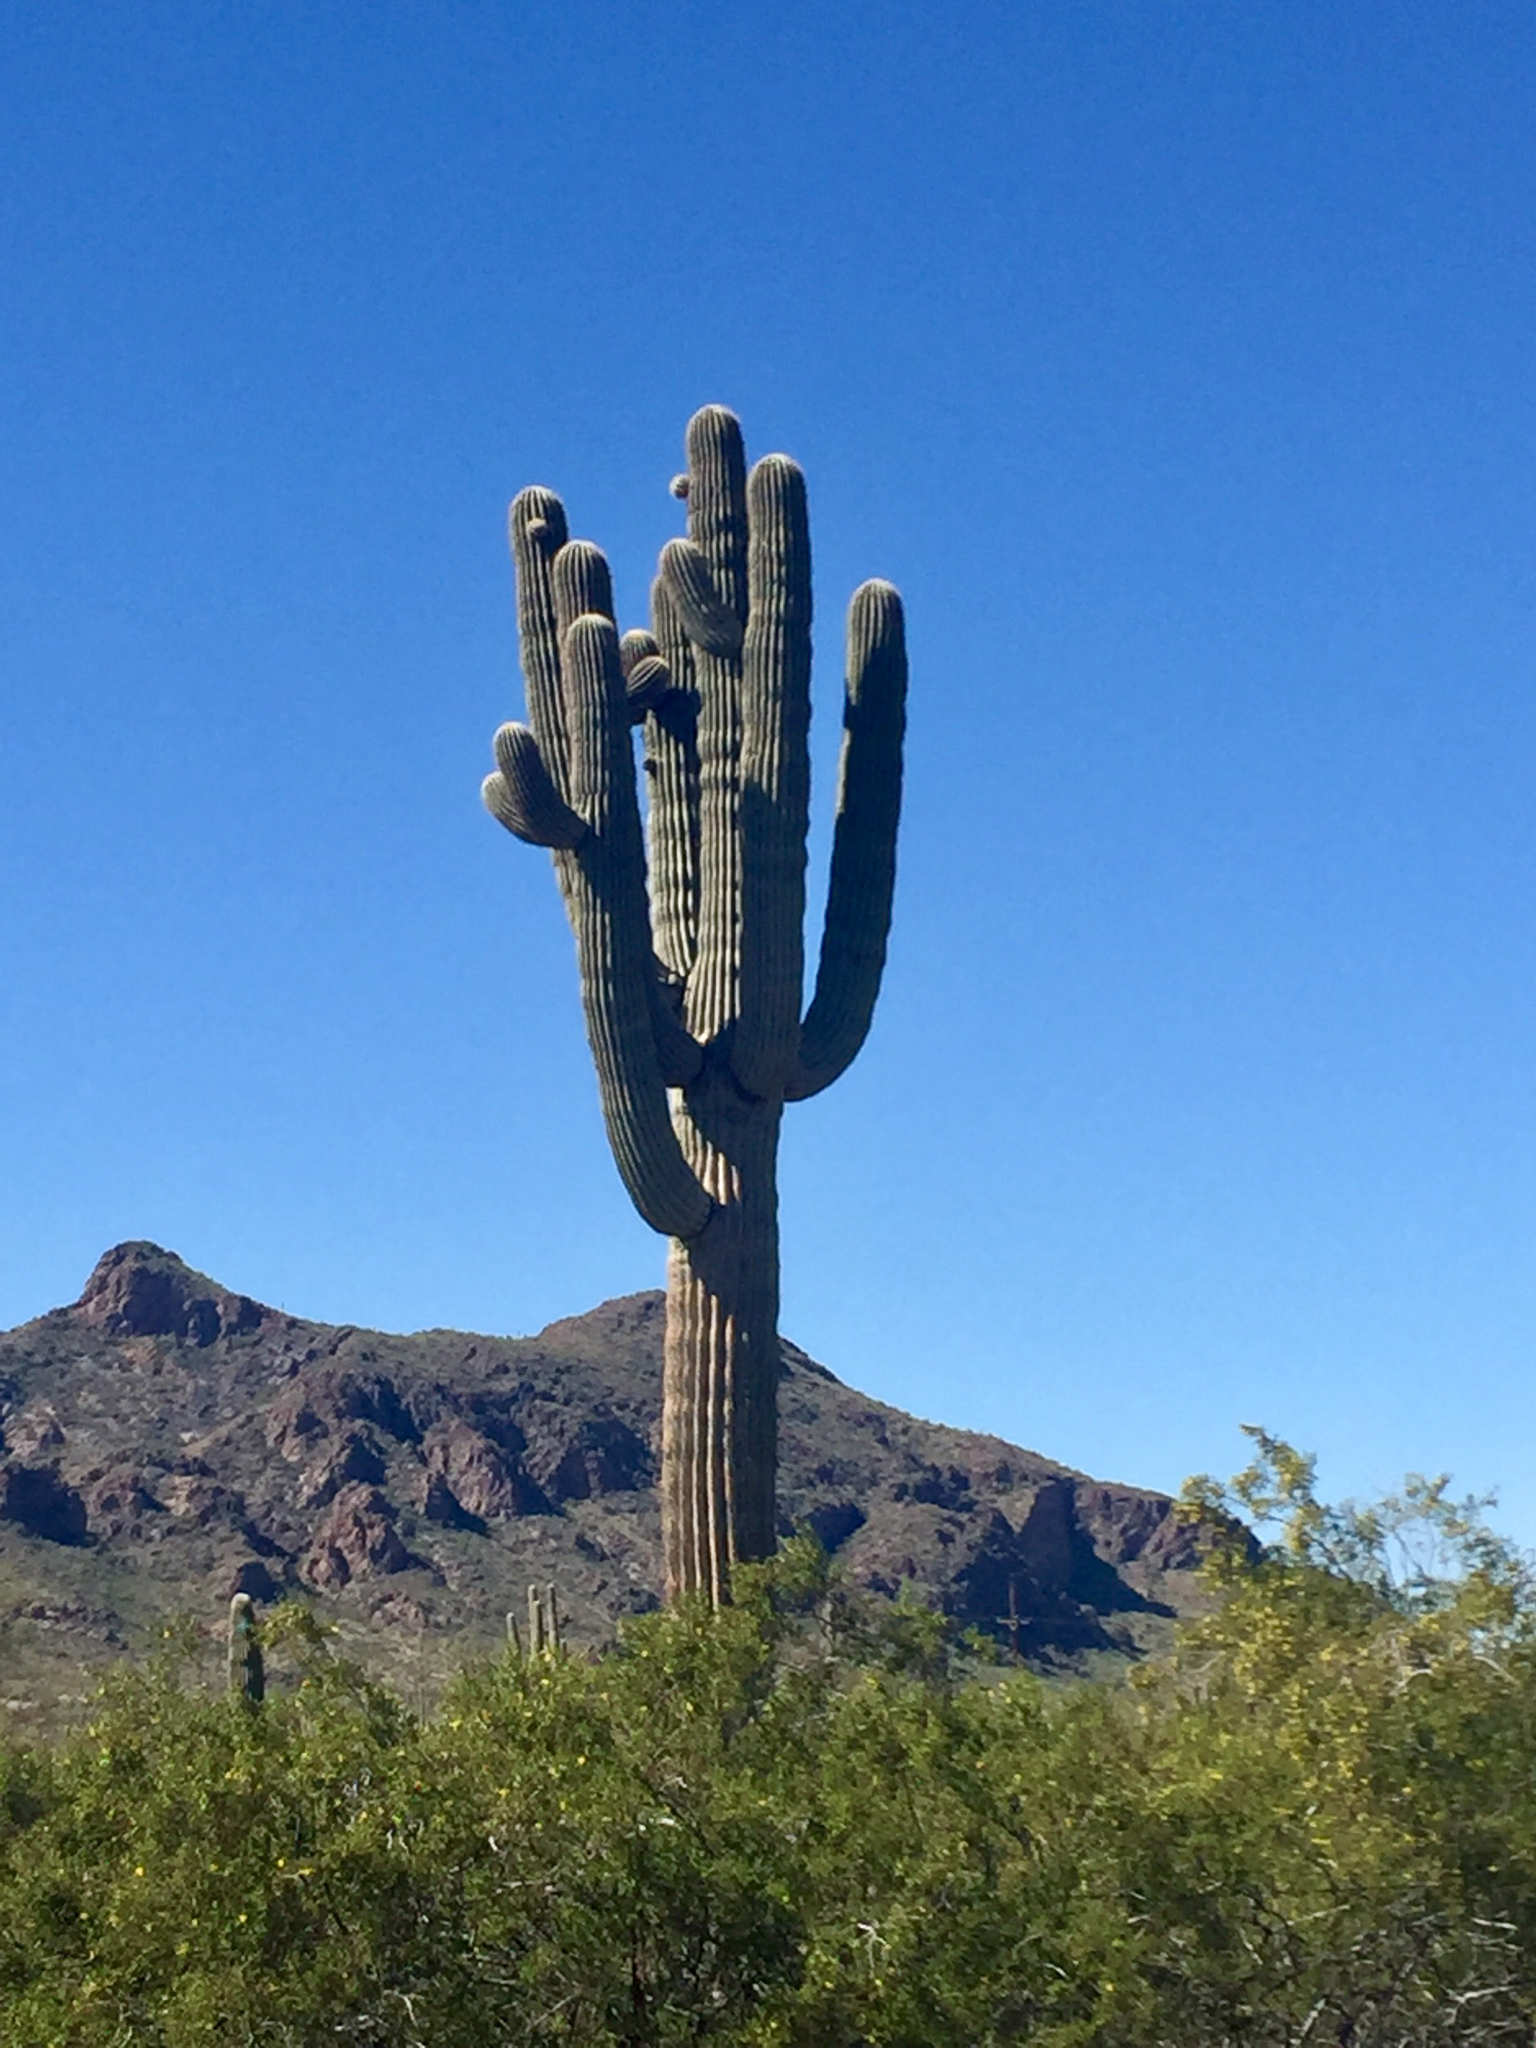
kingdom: Plantae
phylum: Tracheophyta
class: Magnoliopsida
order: Caryophyllales
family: Cactaceae
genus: Carnegiea
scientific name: Carnegiea gigantea
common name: Saguaro
